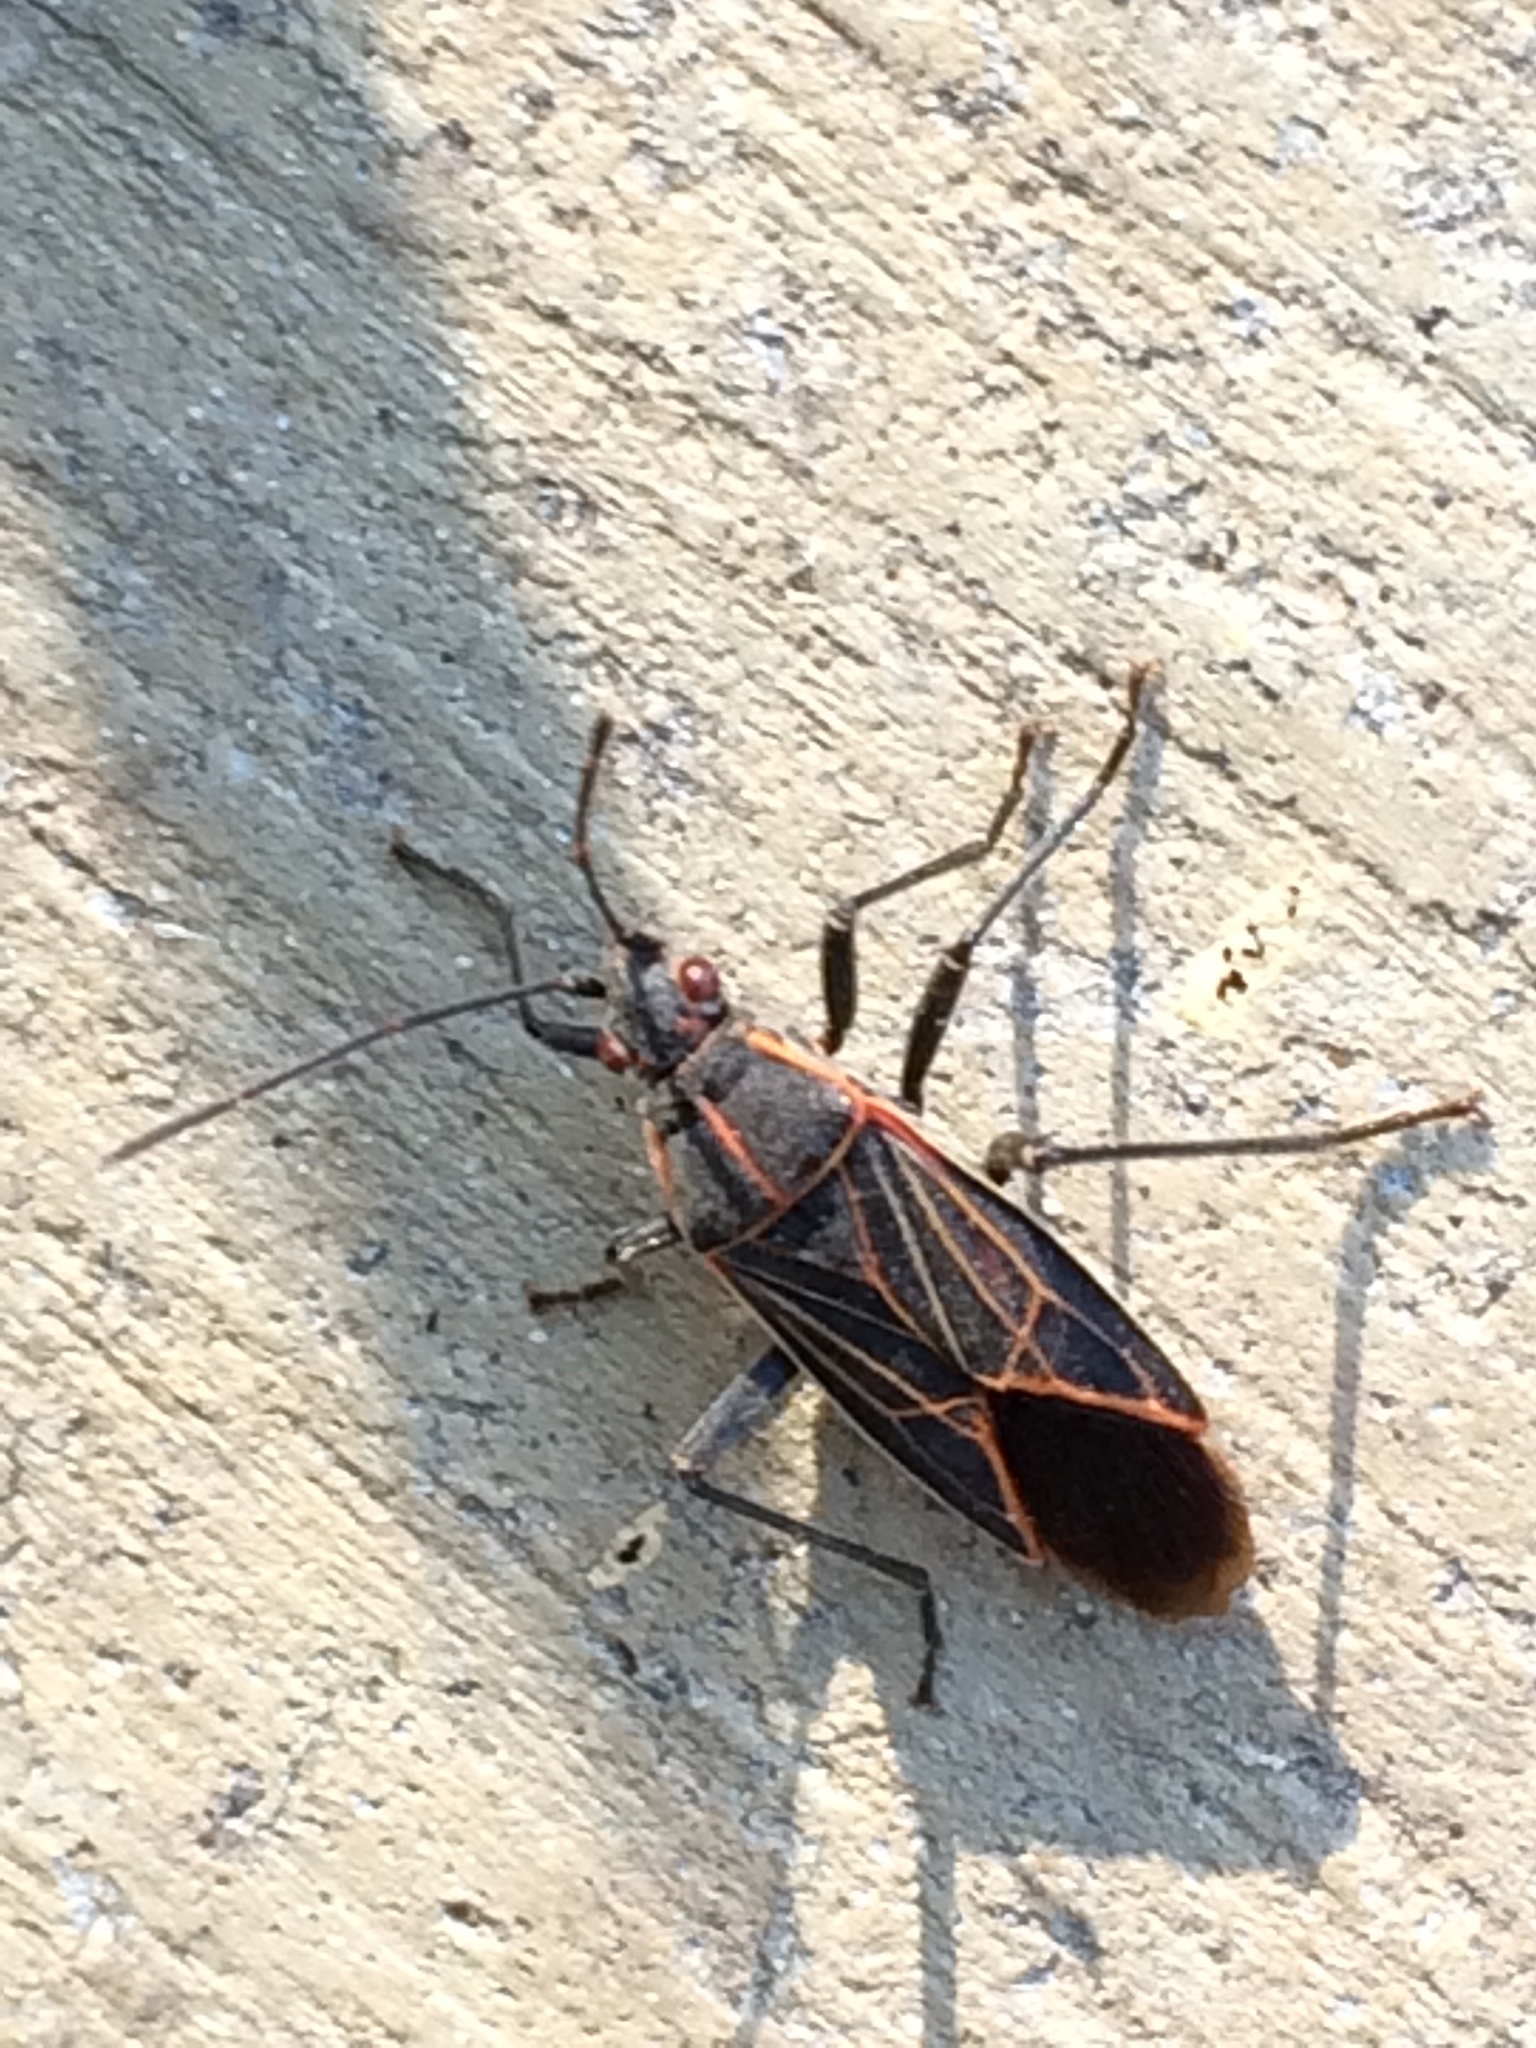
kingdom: Animalia
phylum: Arthropoda
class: Insecta
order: Hemiptera
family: Rhopalidae
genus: Boisea
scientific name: Boisea rubrolineata
